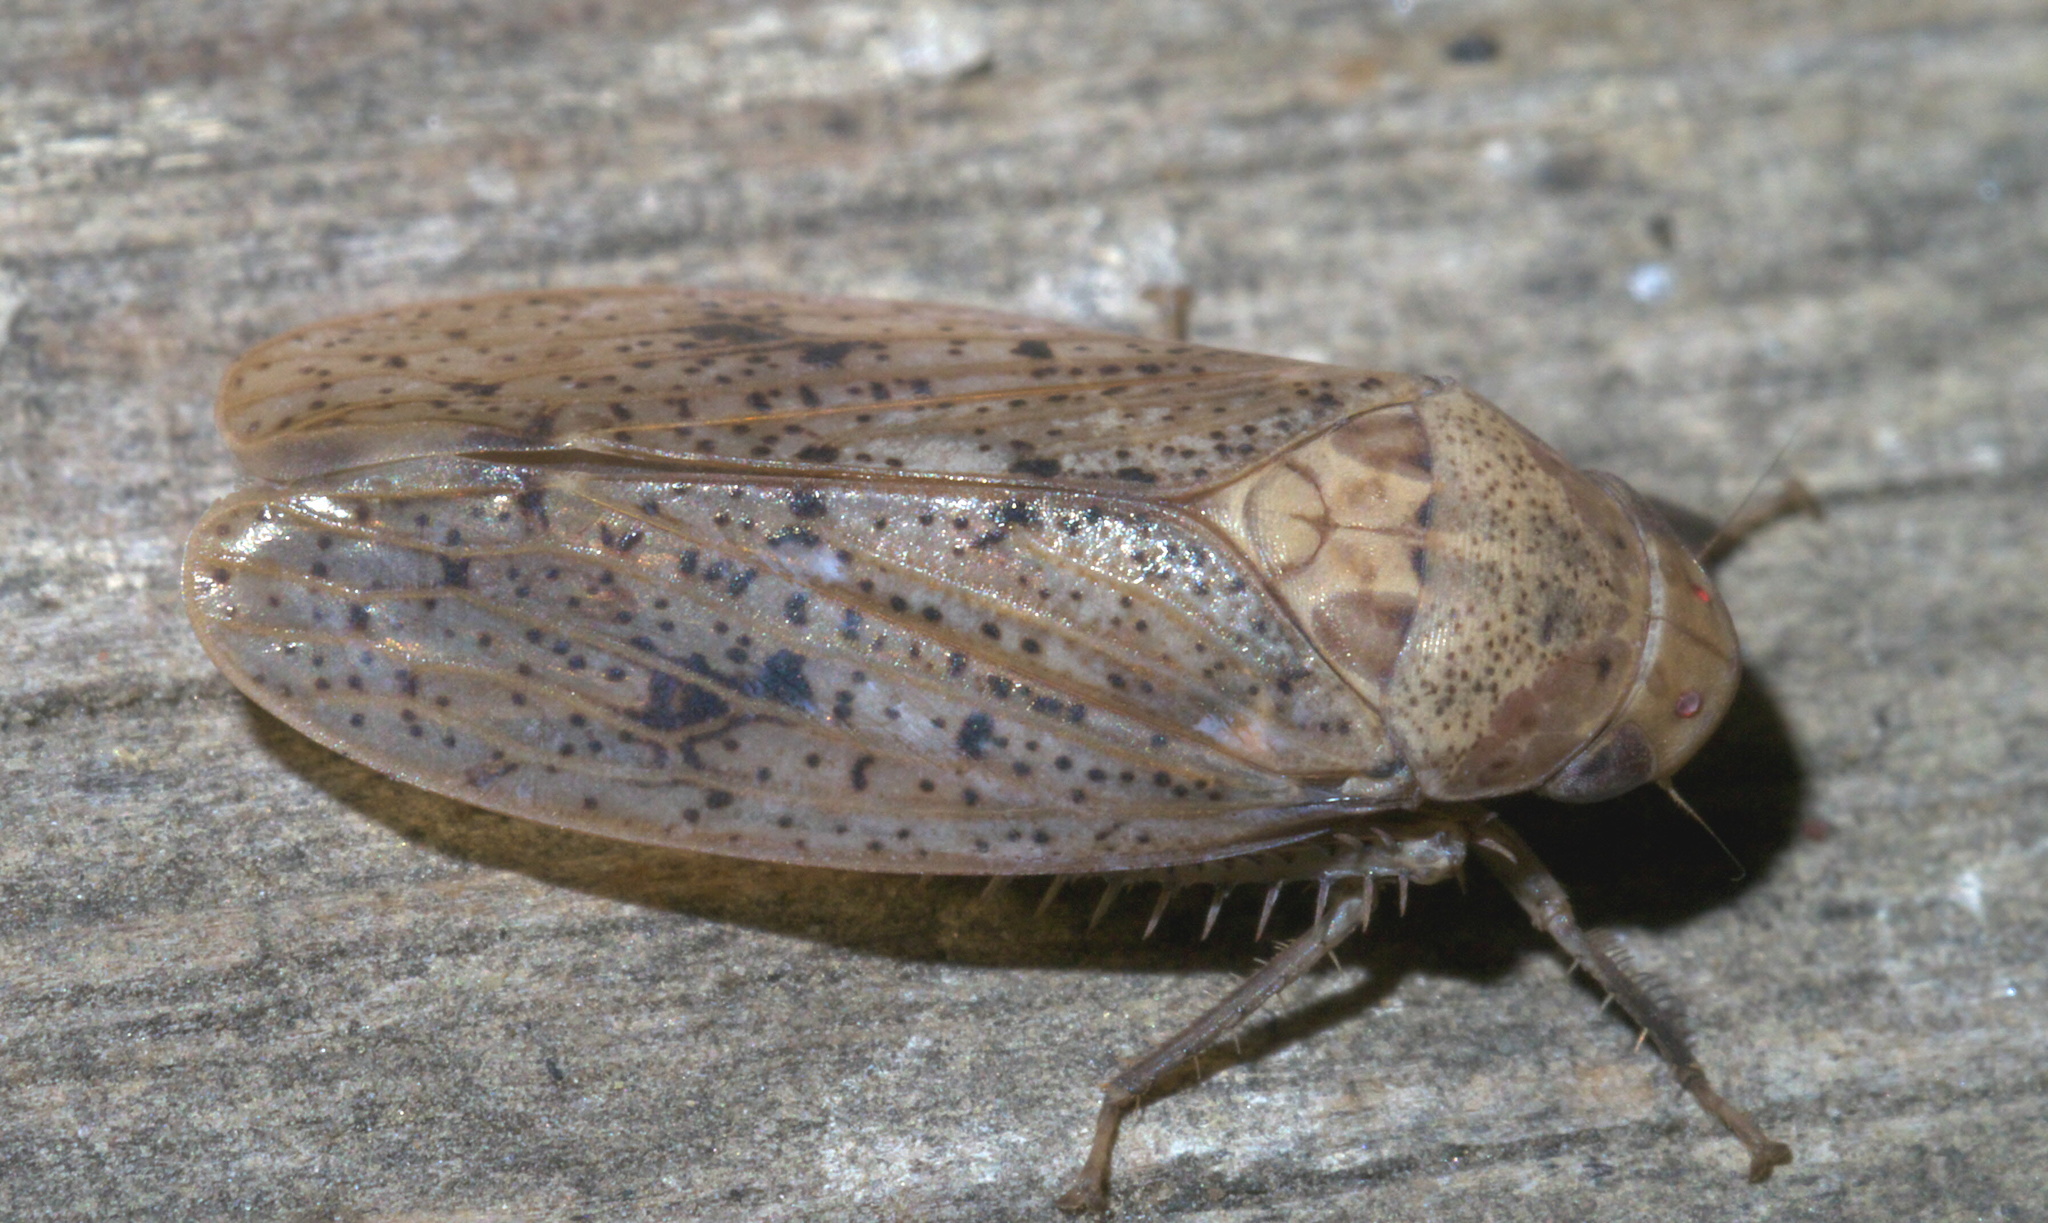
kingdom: Animalia
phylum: Arthropoda
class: Insecta
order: Hemiptera
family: Cicadellidae
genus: Ponana
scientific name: Ponana puncticollis
